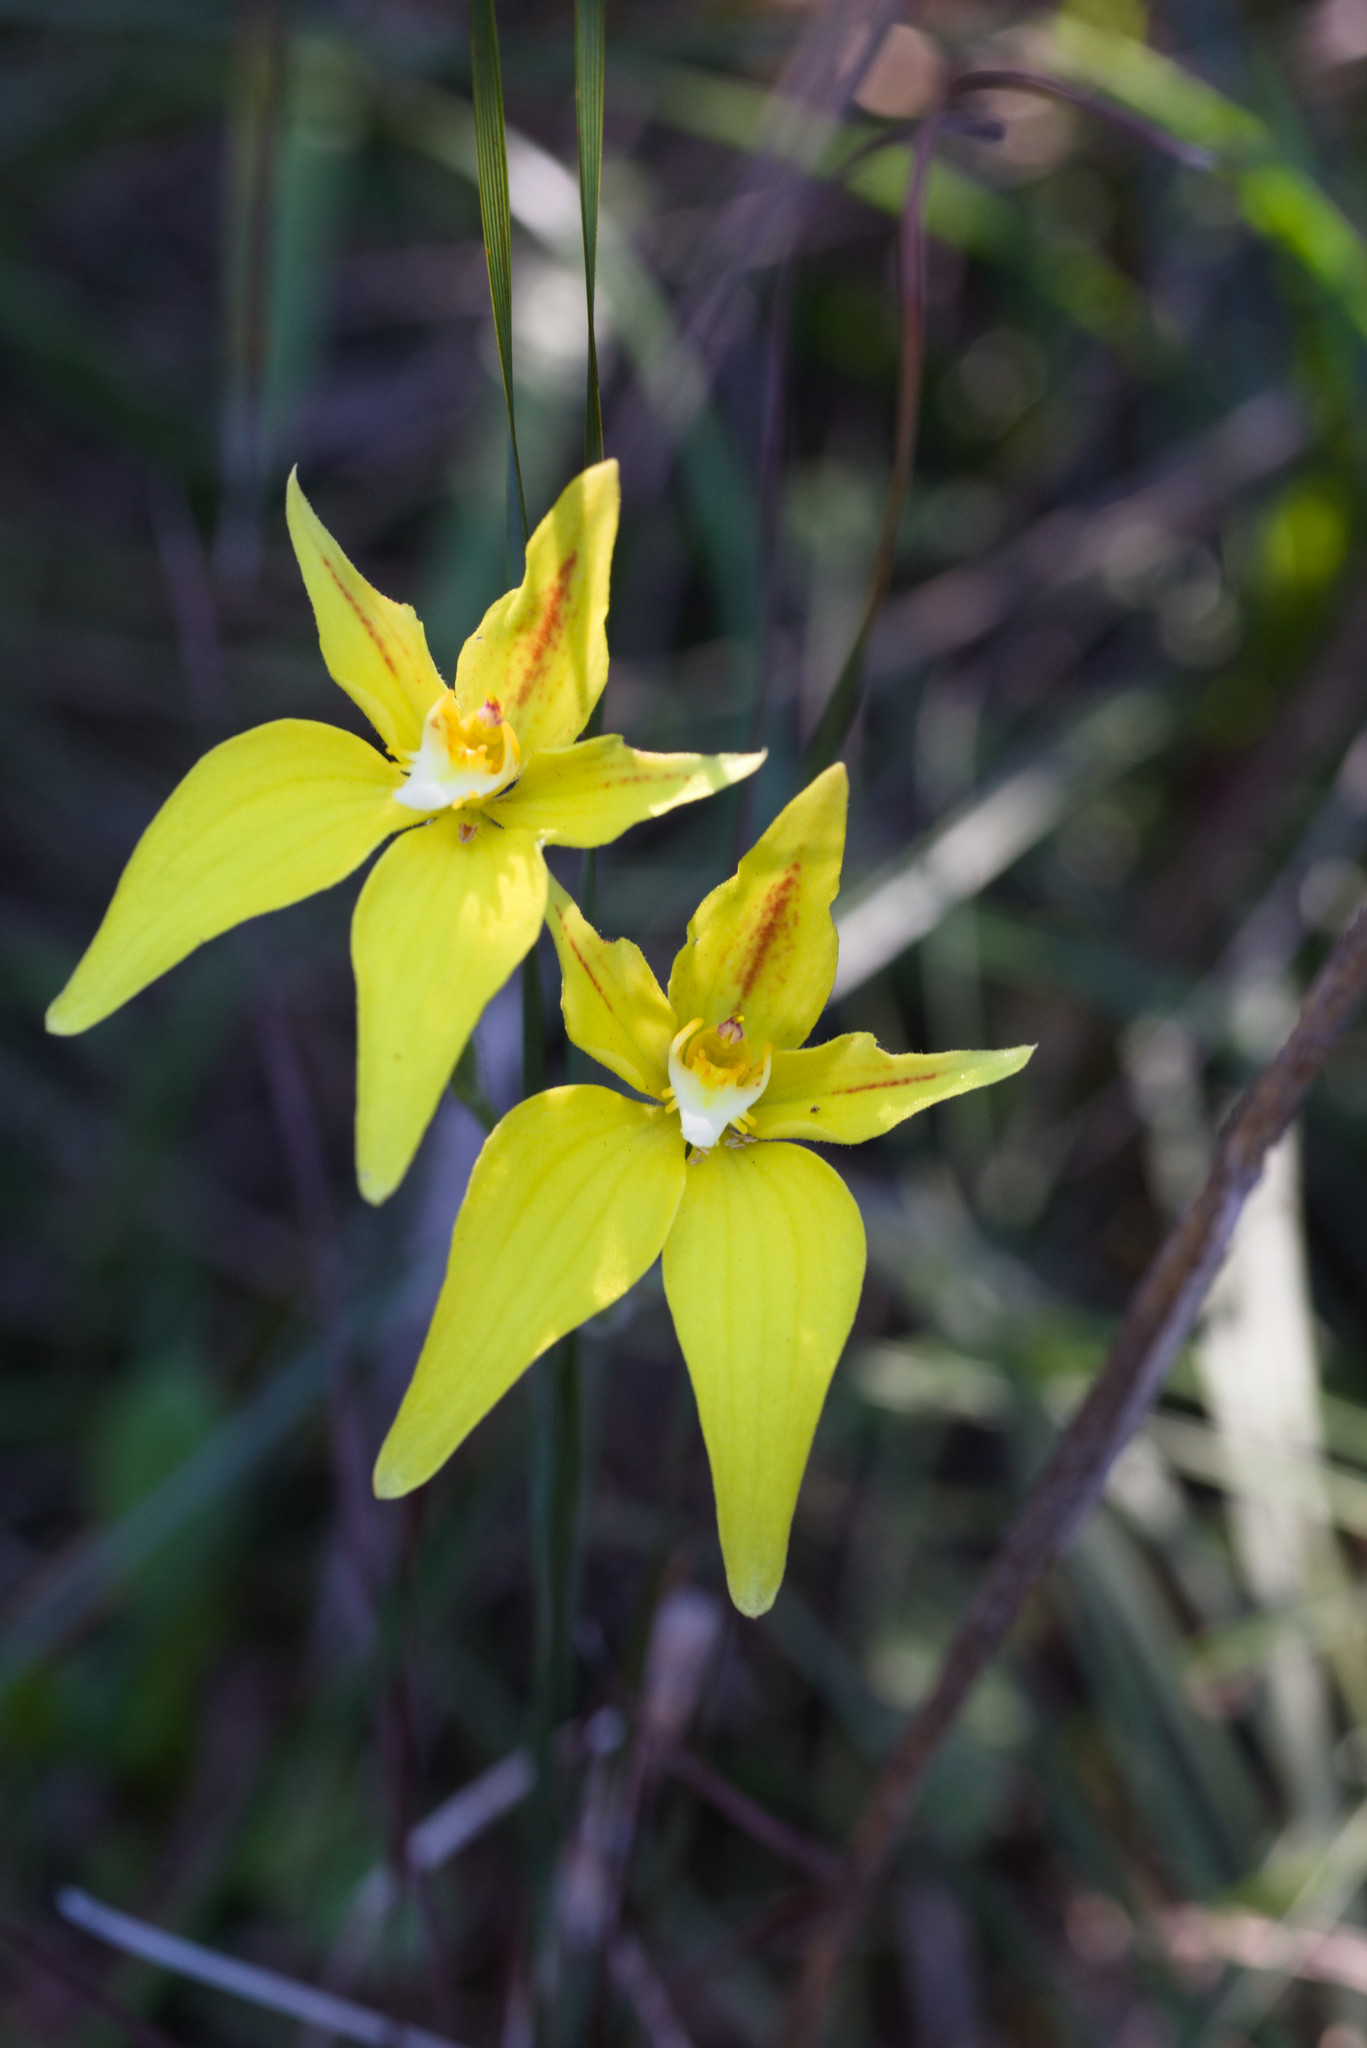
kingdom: Plantae
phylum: Tracheophyta
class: Liliopsida
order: Asparagales
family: Orchidaceae
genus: Caladenia
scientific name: Caladenia flava
